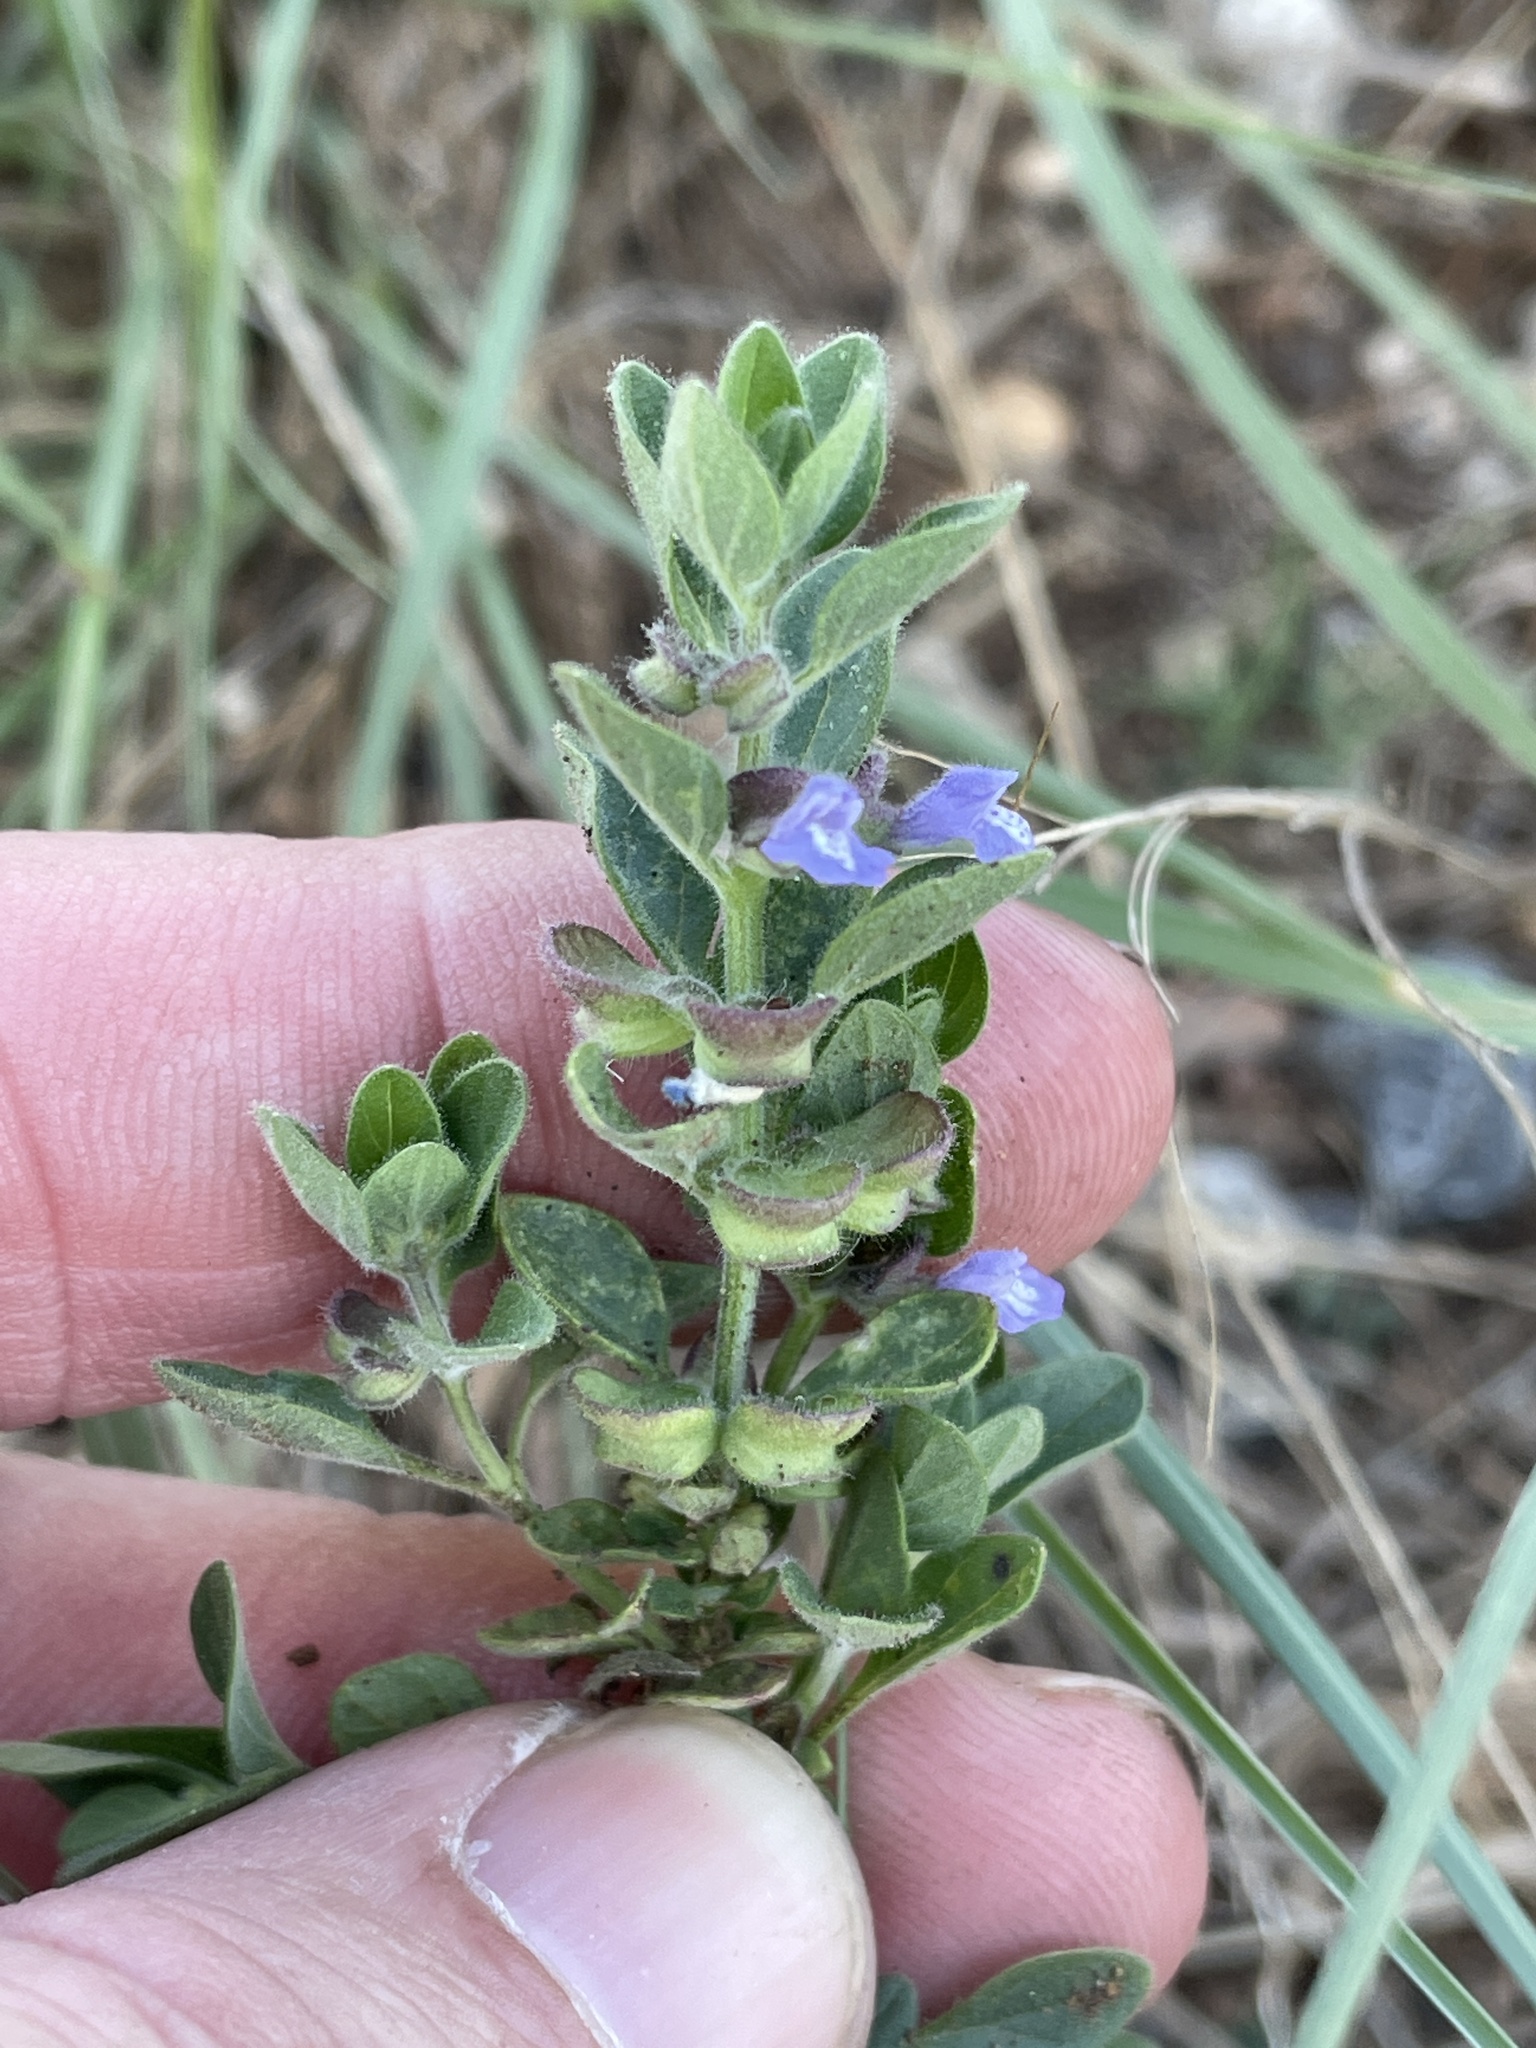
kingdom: Plantae
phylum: Tracheophyta
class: Magnoliopsida
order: Lamiales
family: Lamiaceae
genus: Scutellaria
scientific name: Scutellaria drummondii
